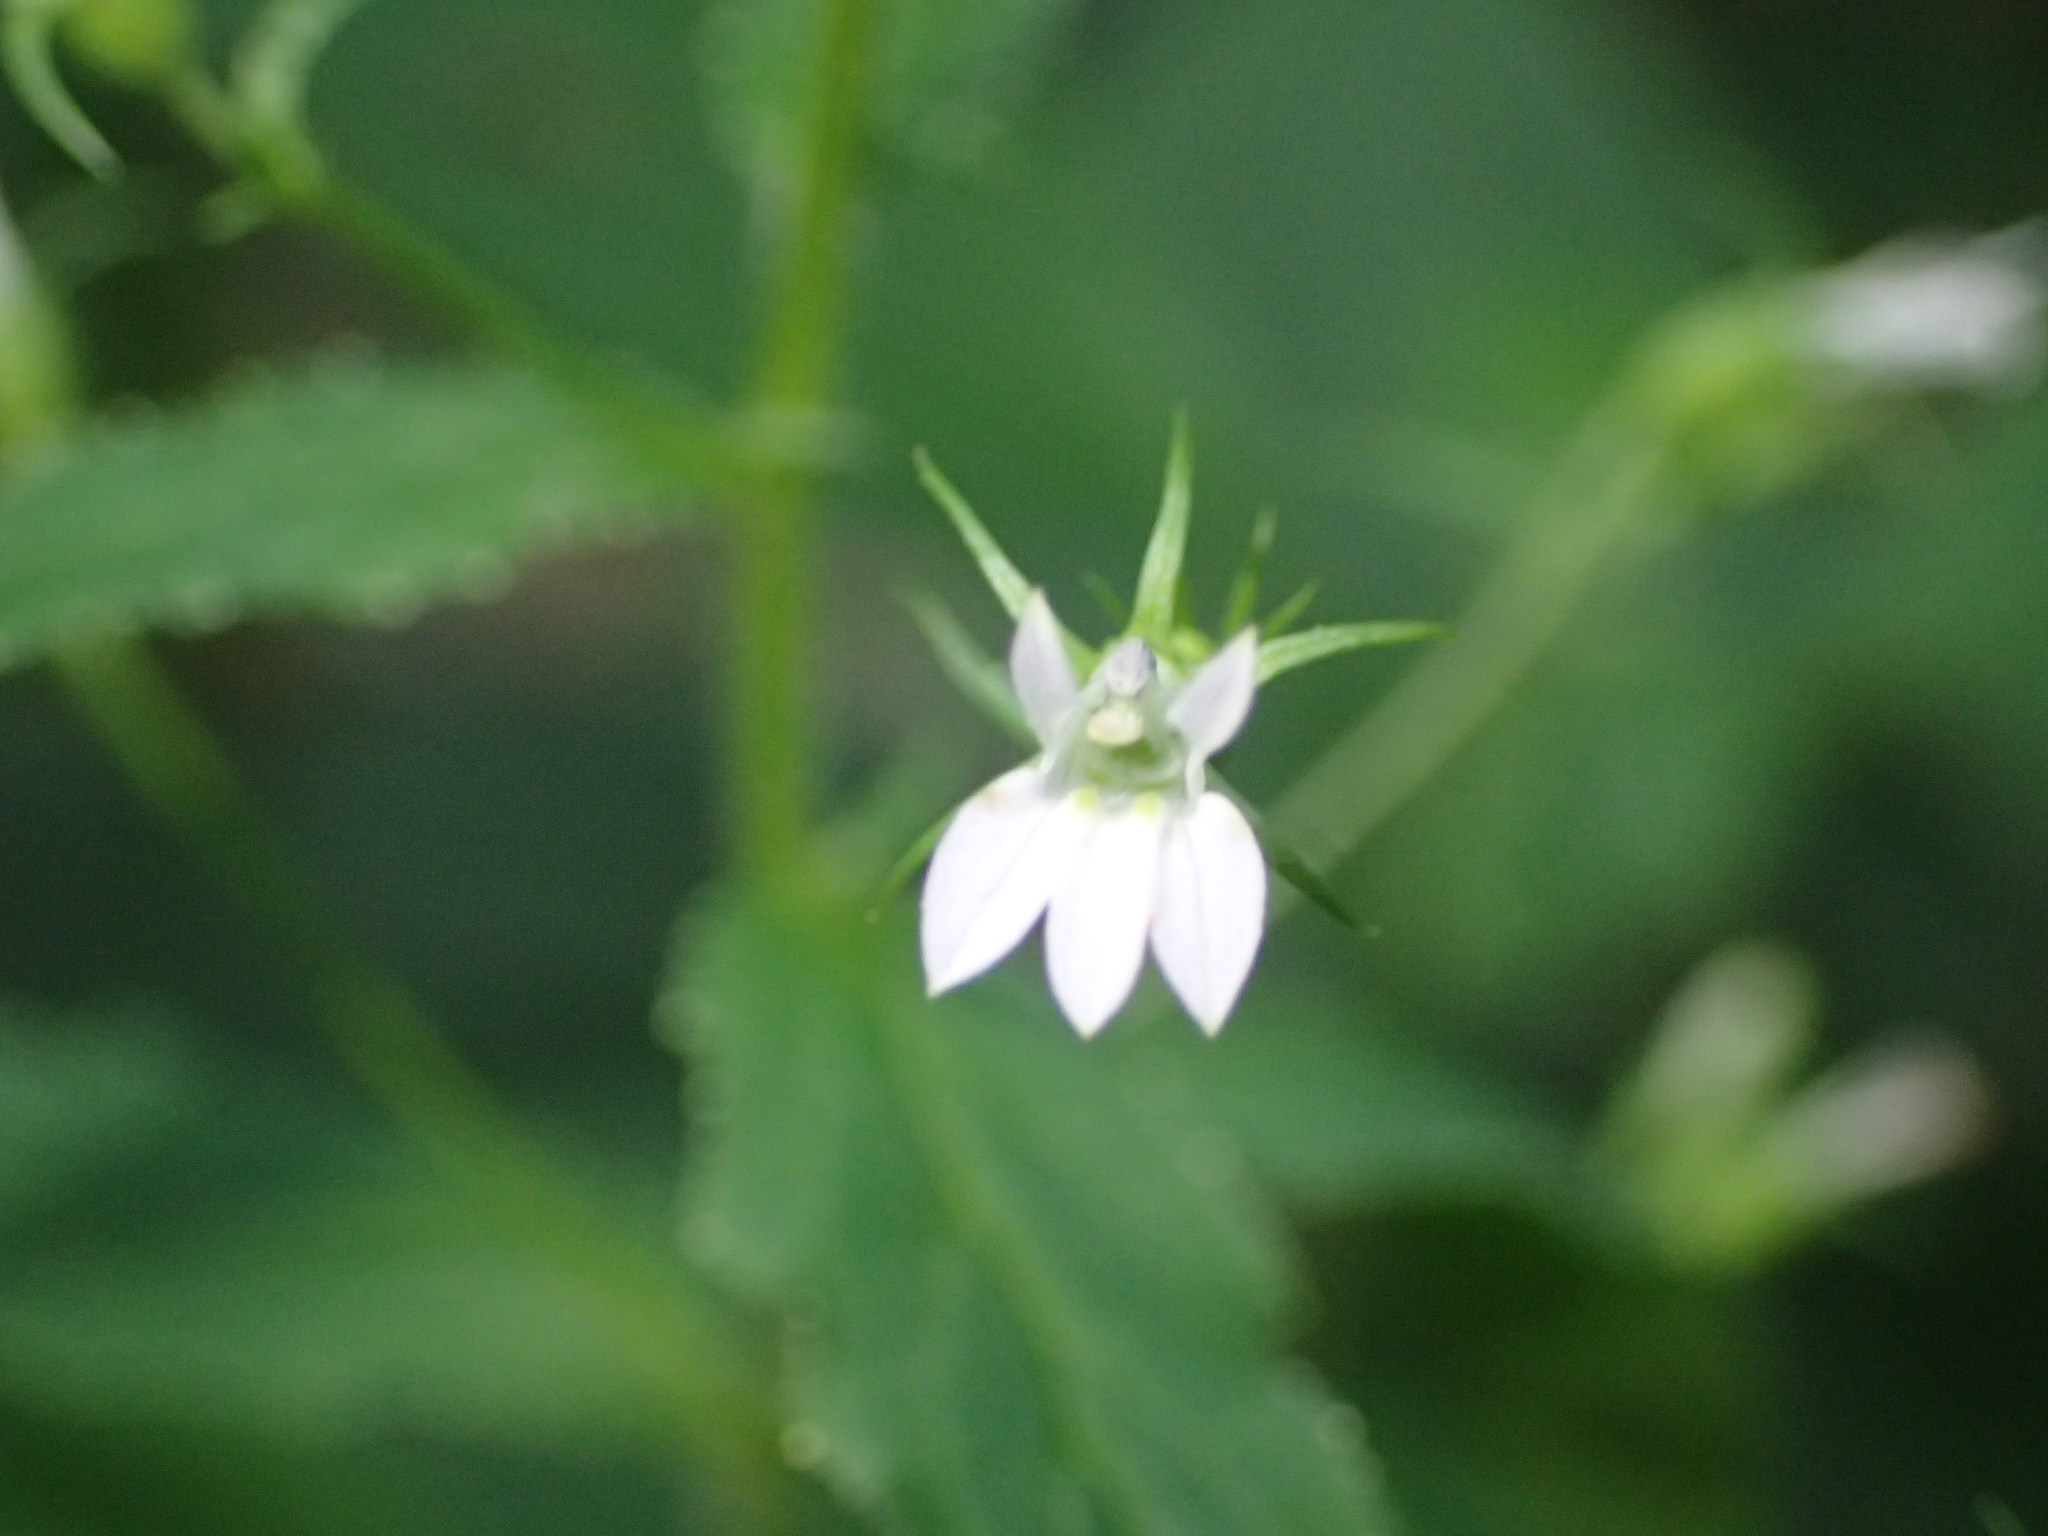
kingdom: Plantae
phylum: Tracheophyta
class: Magnoliopsida
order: Asterales
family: Campanulaceae
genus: Lobelia
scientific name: Lobelia inflata
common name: Indian tobacco
